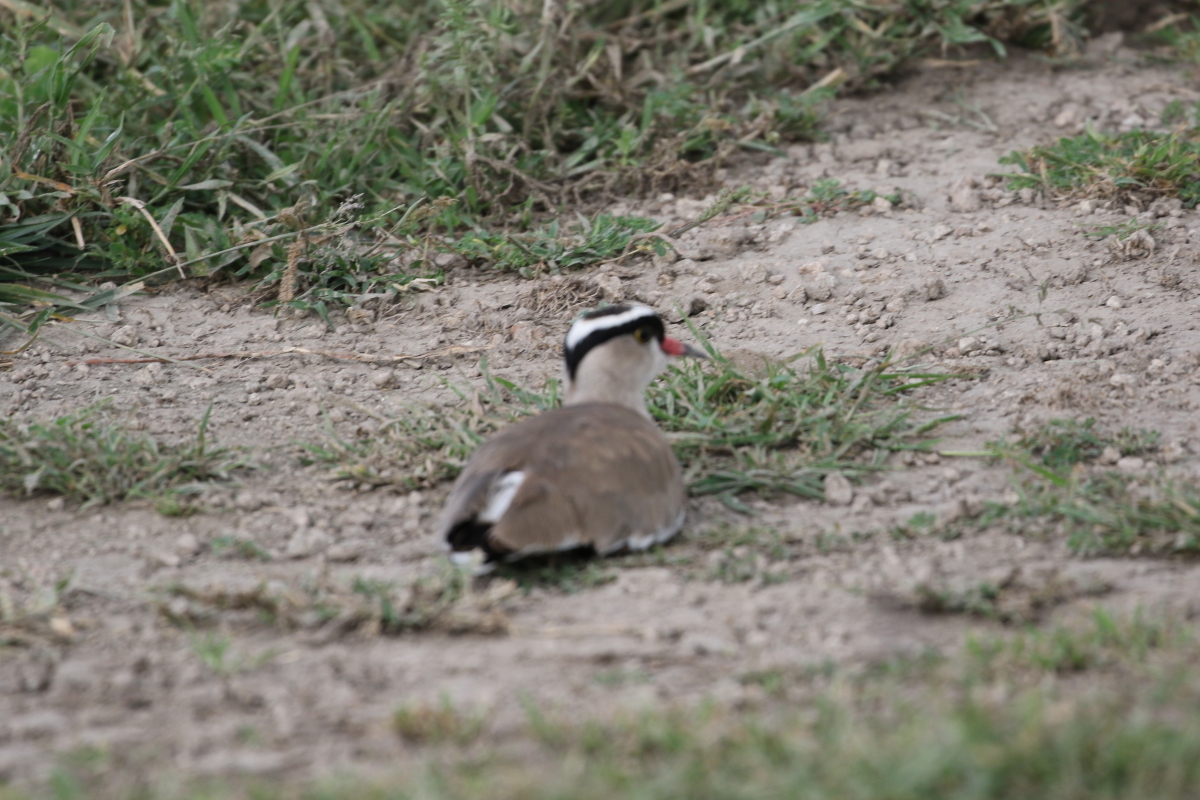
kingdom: Animalia
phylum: Chordata
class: Aves
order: Charadriiformes
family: Charadriidae
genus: Vanellus
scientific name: Vanellus coronatus
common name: Crowned lapwing
